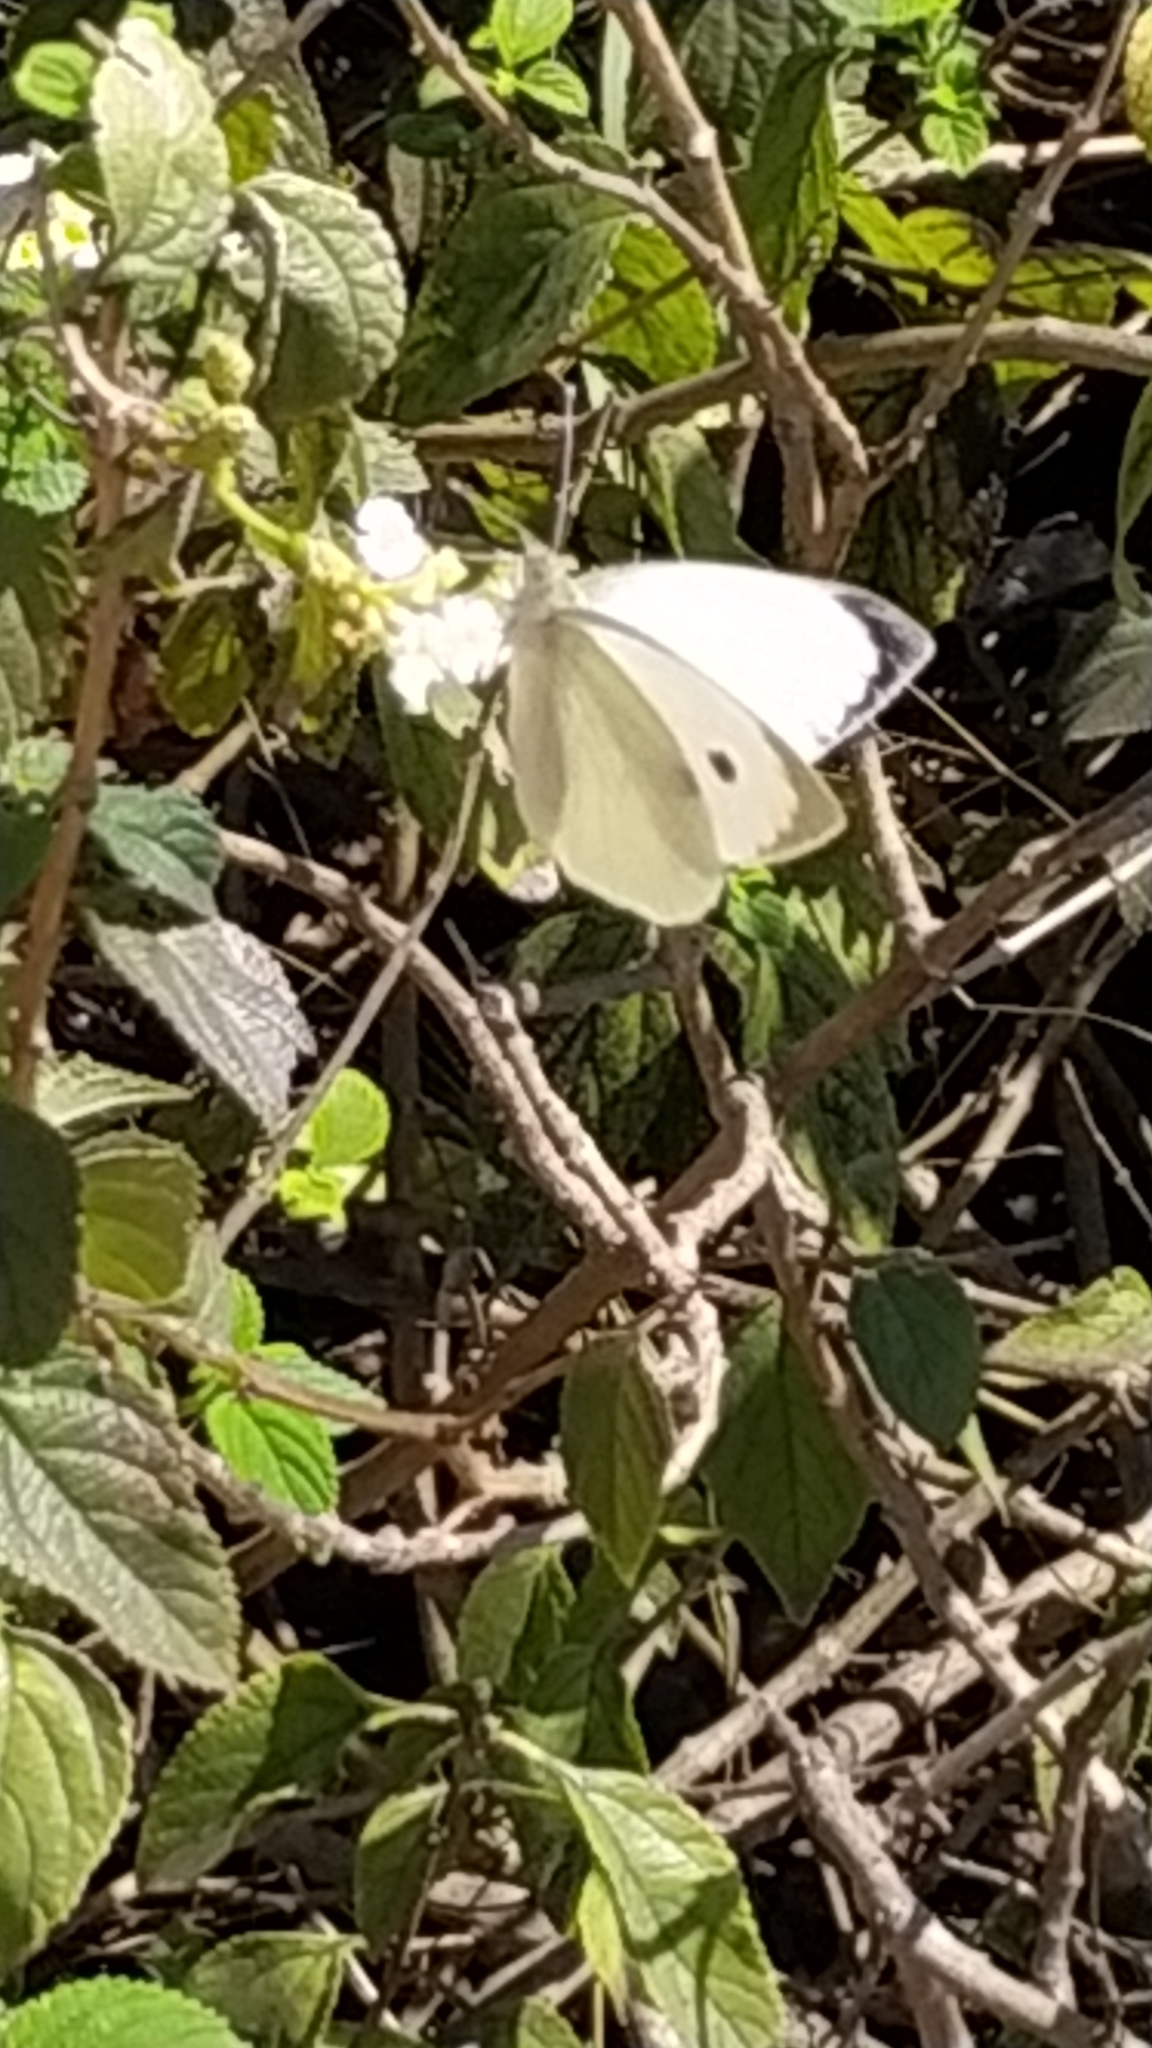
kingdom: Animalia
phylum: Arthropoda
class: Insecta
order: Lepidoptera
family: Pieridae
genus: Pieris
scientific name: Pieris brassicae
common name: Large white
